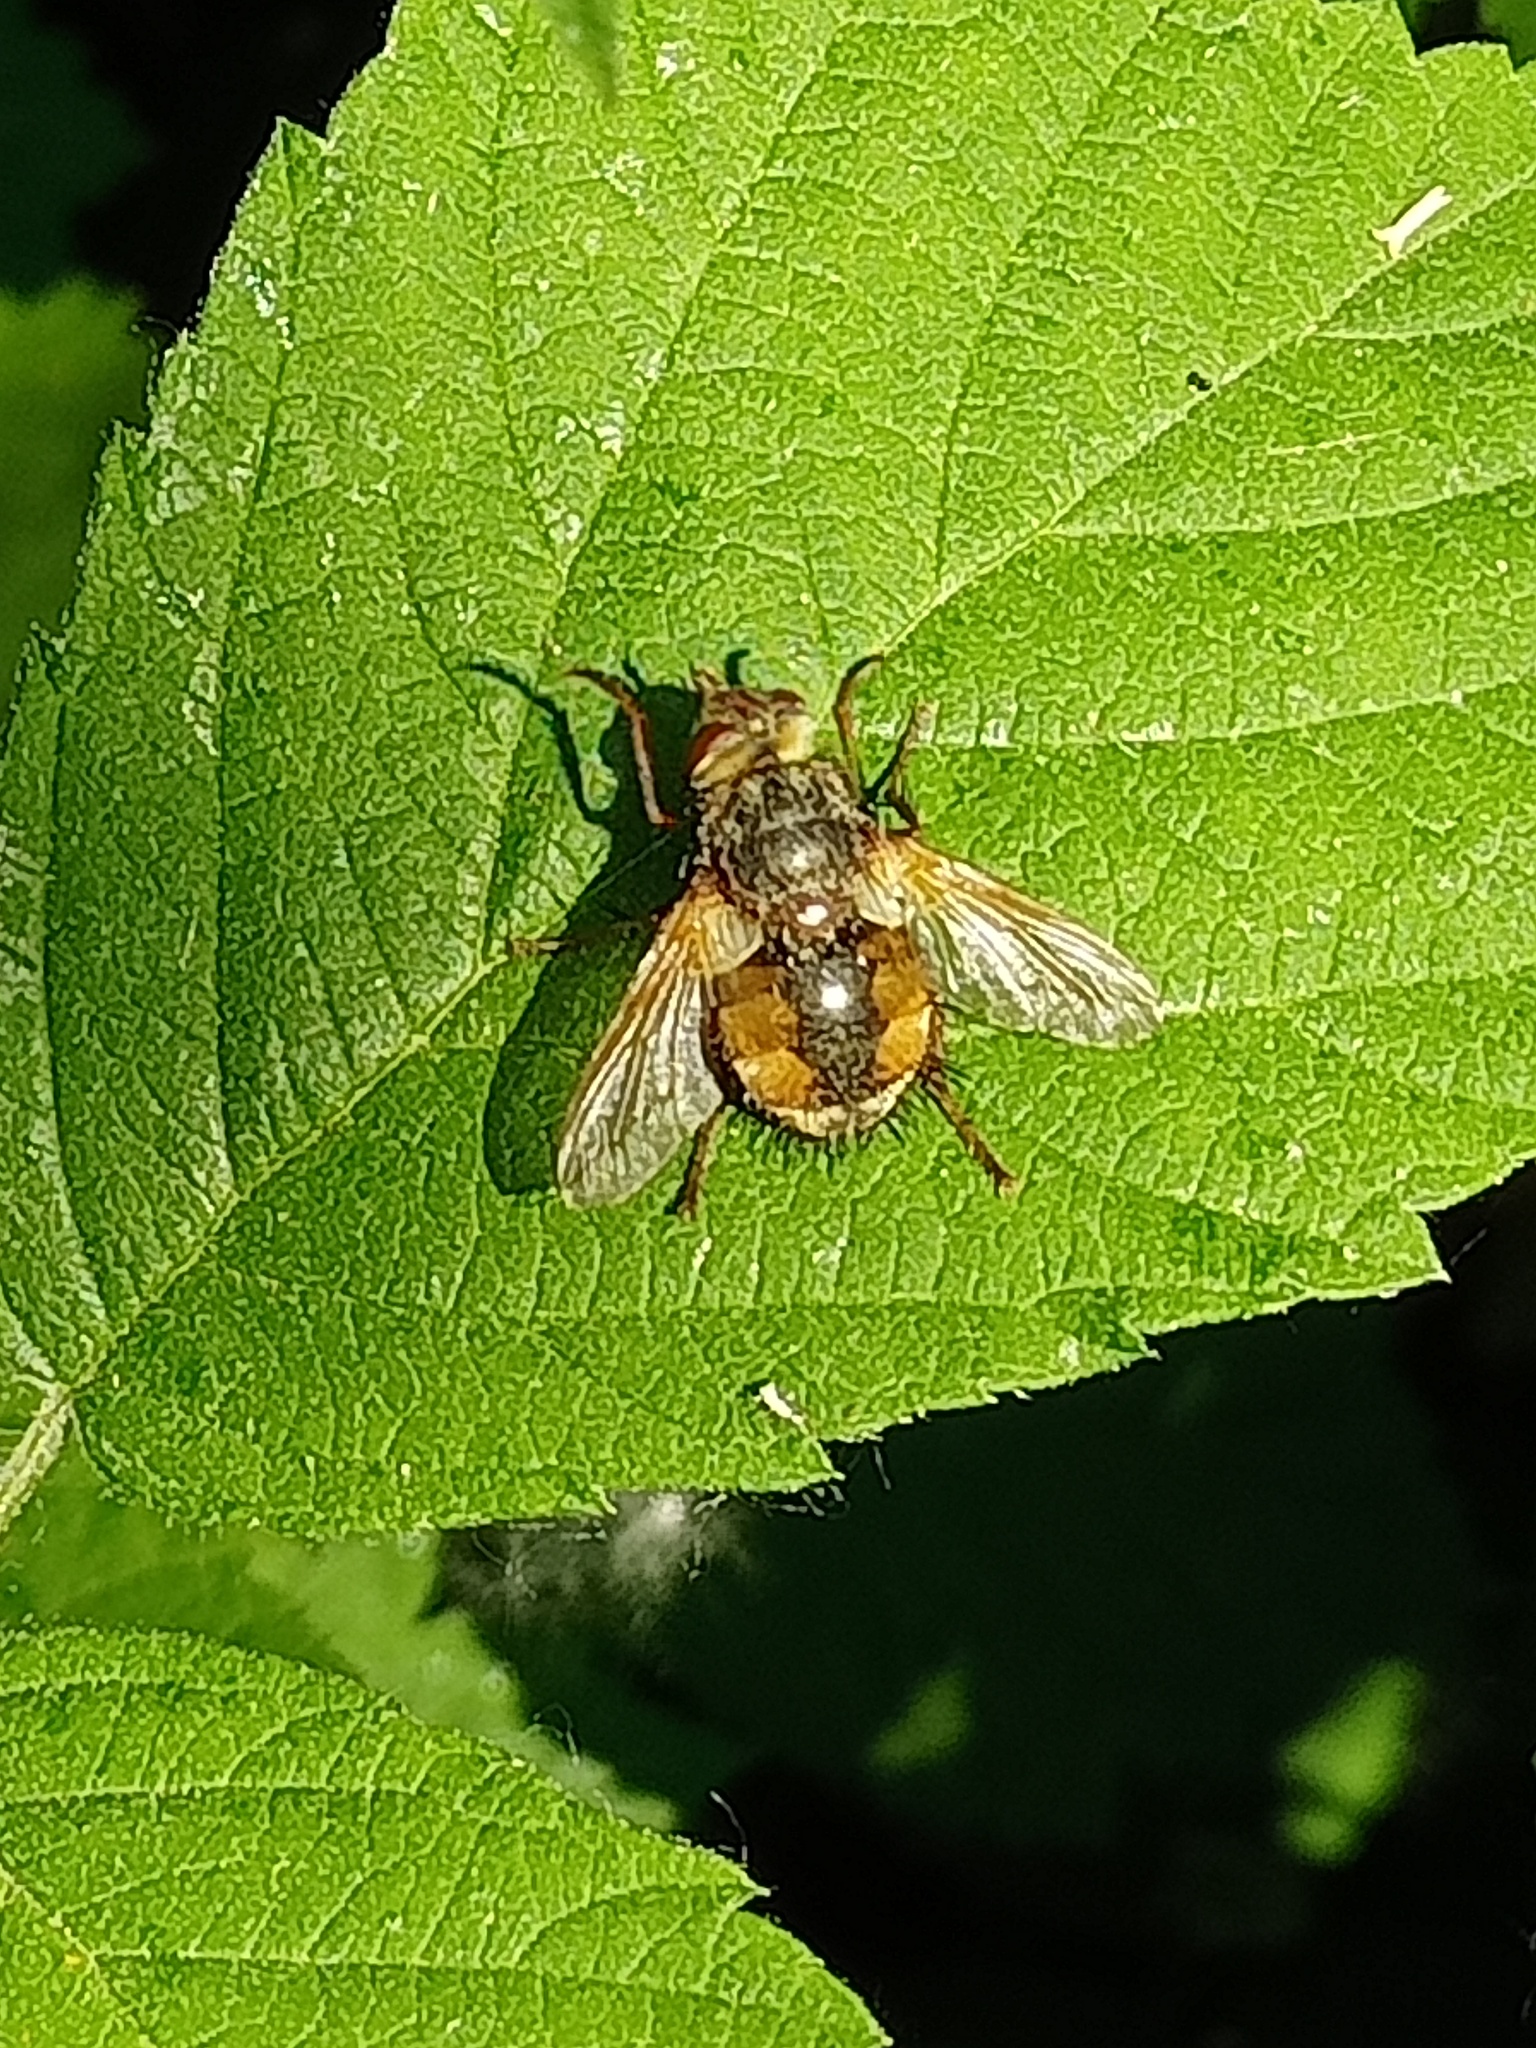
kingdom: Animalia
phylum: Arthropoda
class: Insecta
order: Diptera
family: Tachinidae
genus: Tachina
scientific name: Tachina fera
